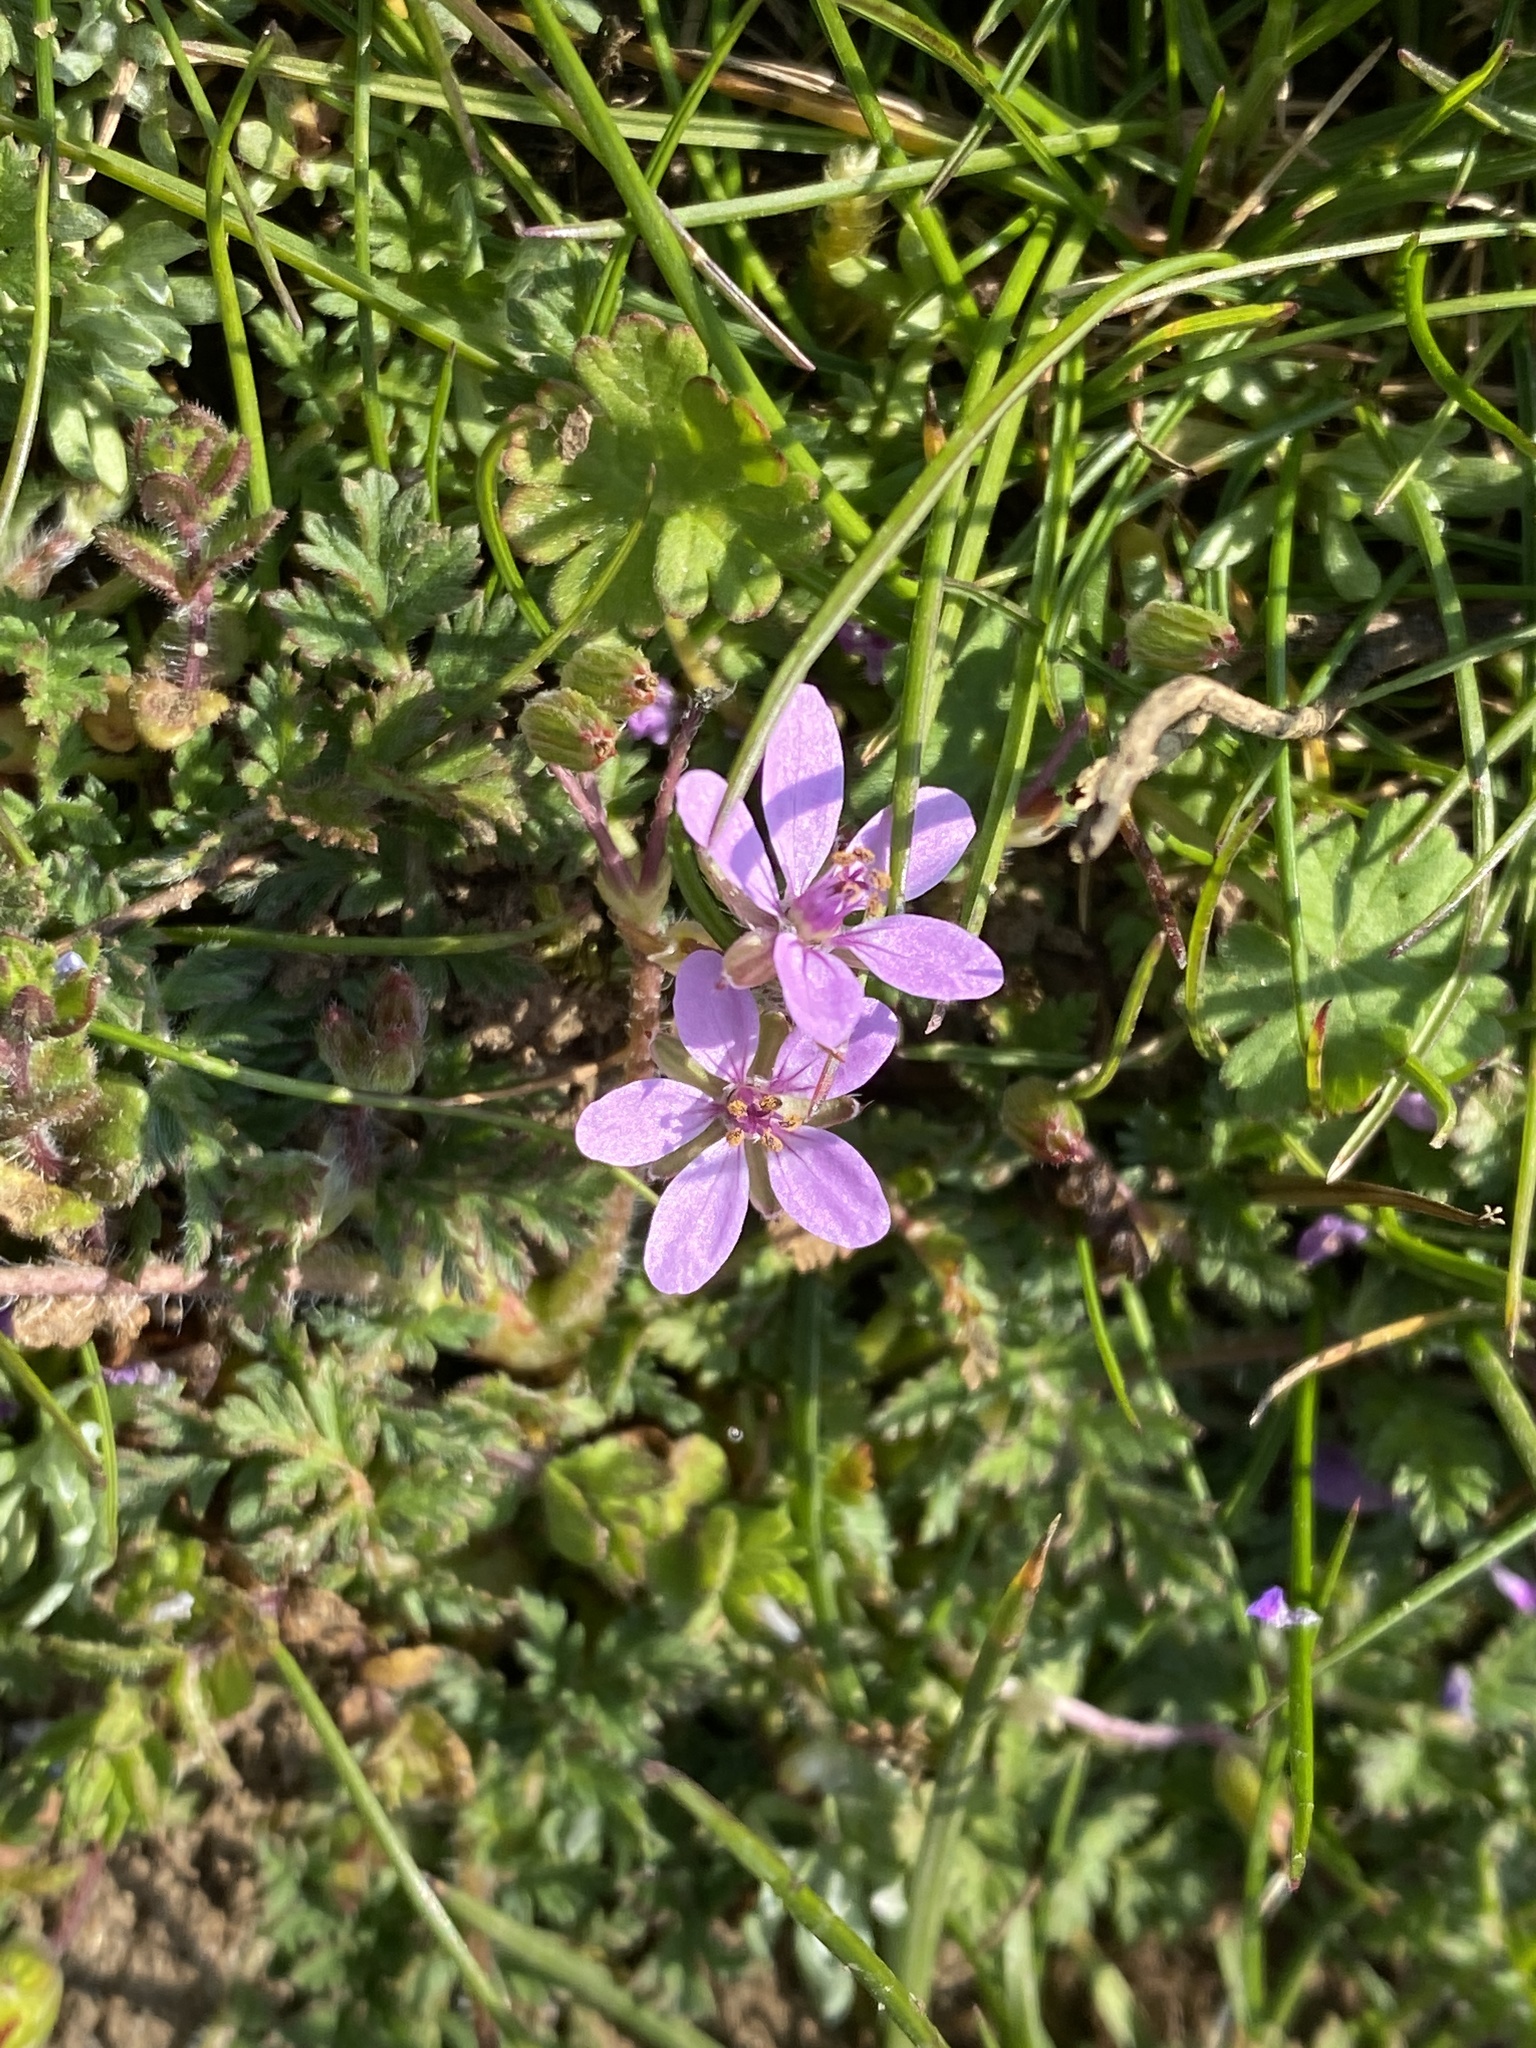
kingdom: Plantae
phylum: Tracheophyta
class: Magnoliopsida
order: Geraniales
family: Geraniaceae
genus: Erodium
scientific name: Erodium cicutarium
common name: Common stork's-bill
